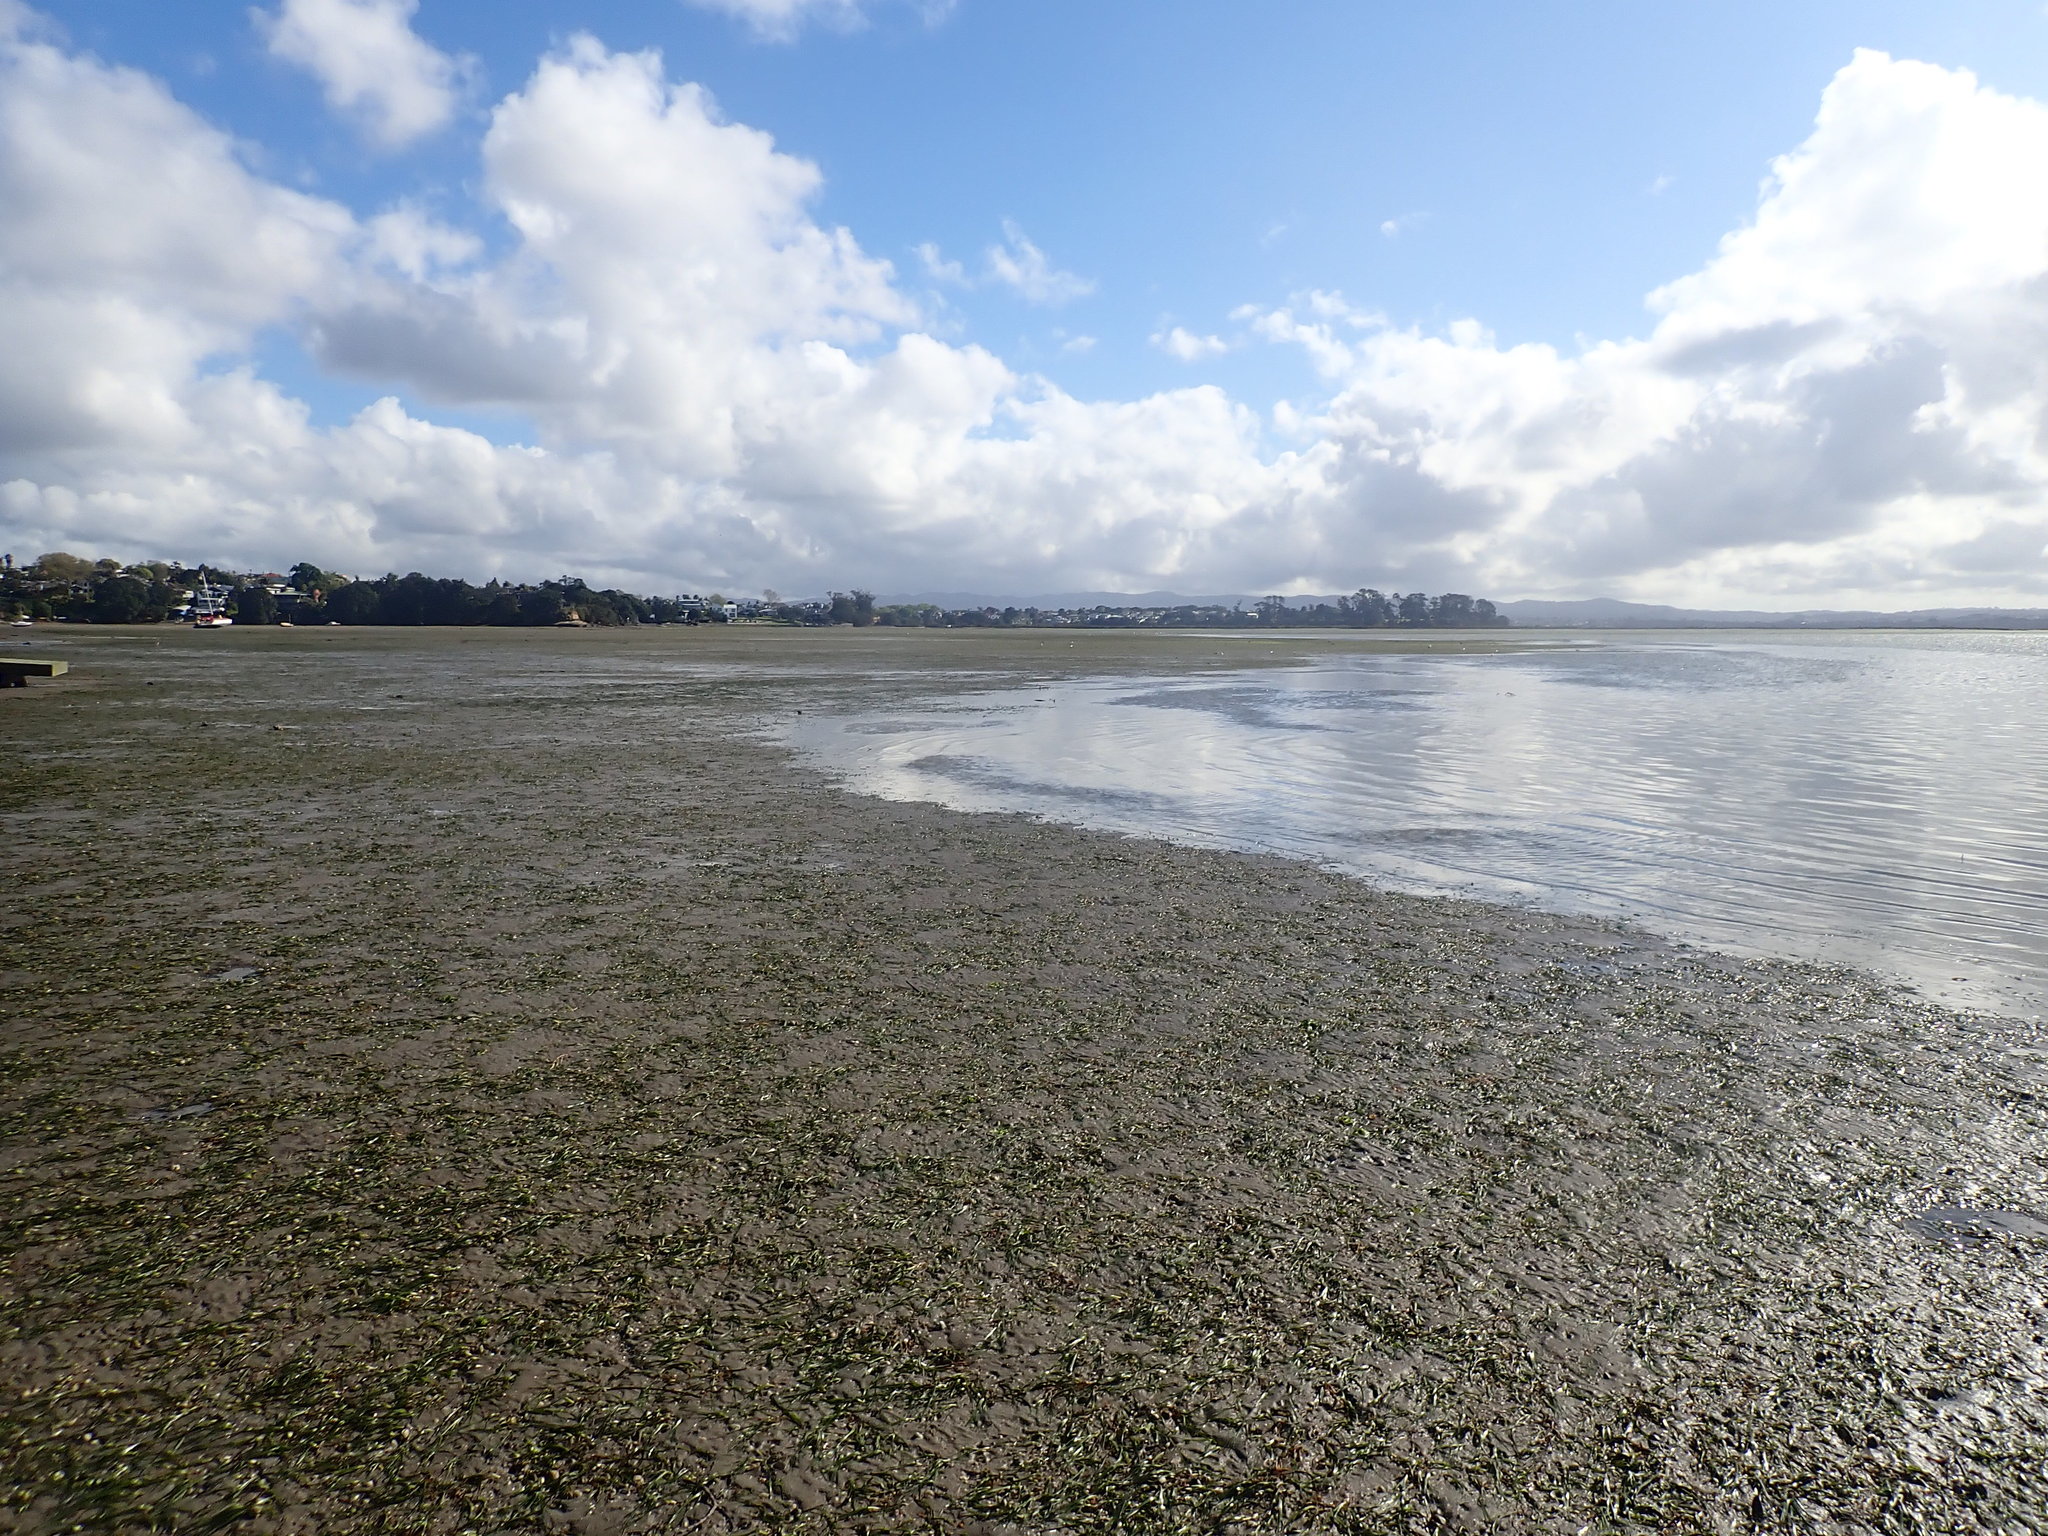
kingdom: Plantae
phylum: Tracheophyta
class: Liliopsida
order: Alismatales
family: Zosteraceae
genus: Zostera
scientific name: Zostera novazelandica
